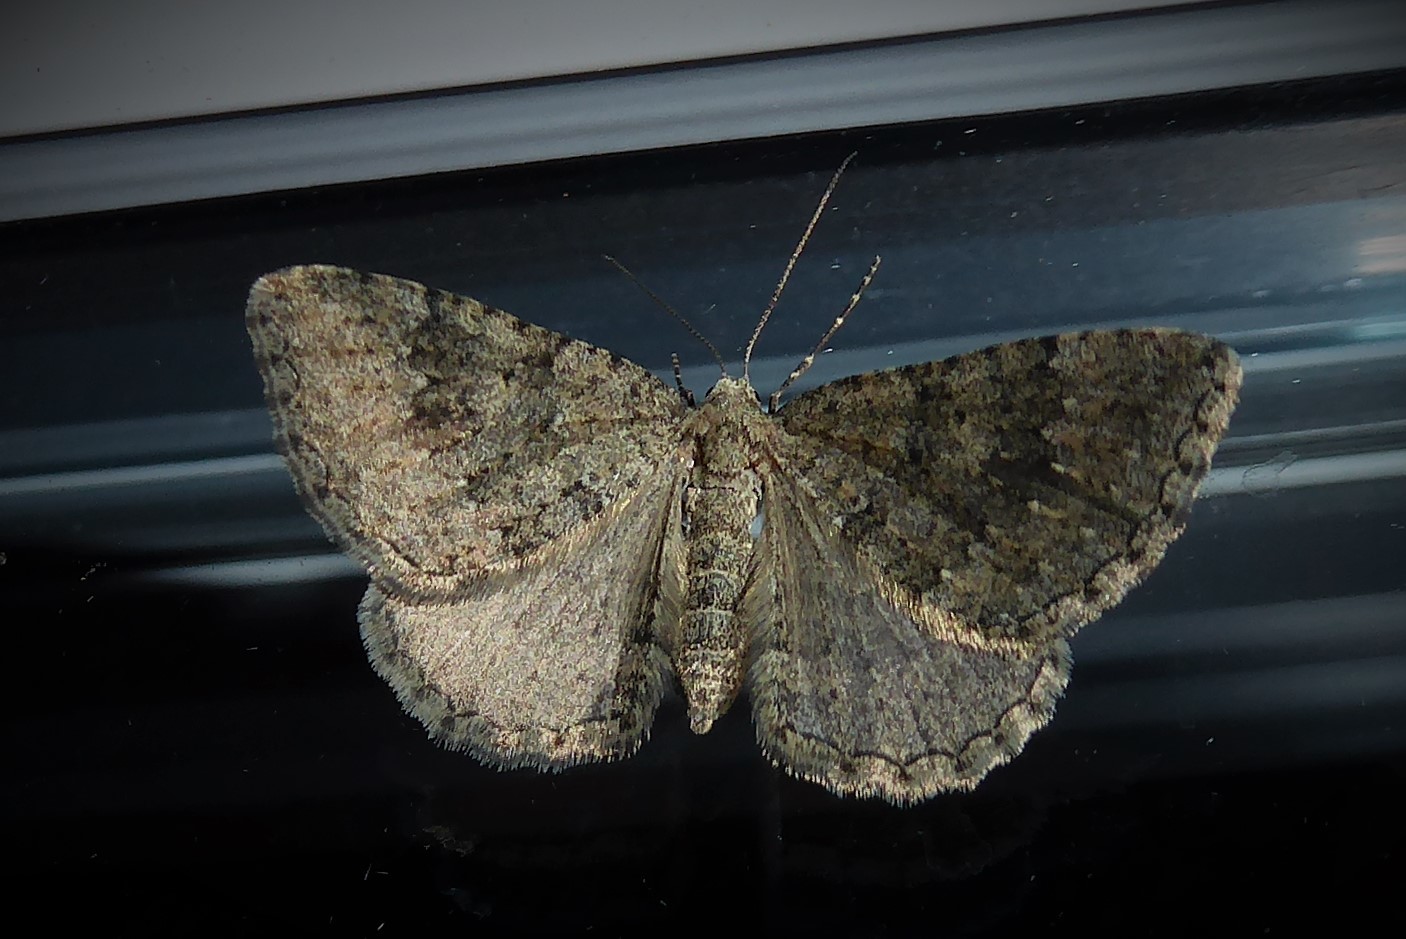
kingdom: Animalia
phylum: Arthropoda
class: Insecta
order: Lepidoptera
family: Geometridae
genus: Helastia
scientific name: Helastia corcularia
